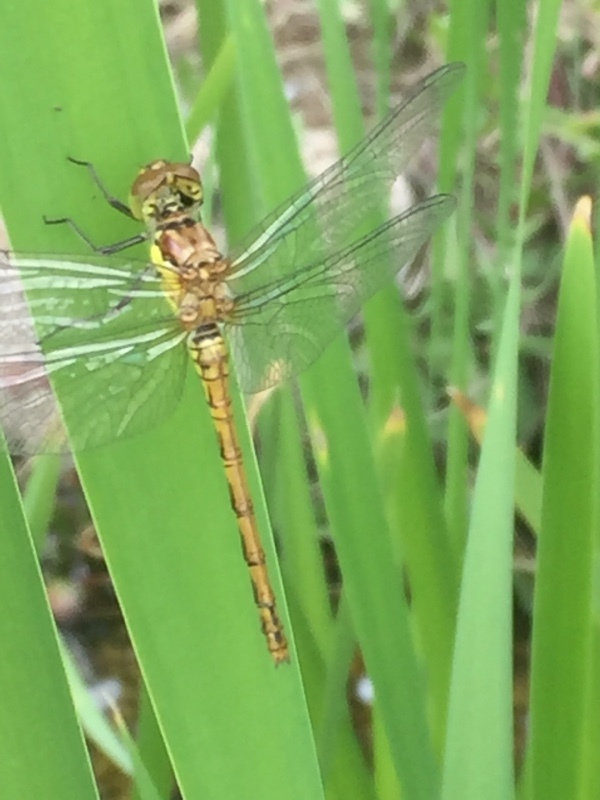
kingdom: Animalia
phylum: Arthropoda
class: Insecta
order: Odonata
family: Libellulidae
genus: Sympetrum
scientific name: Sympetrum striolatum
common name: Common darter
